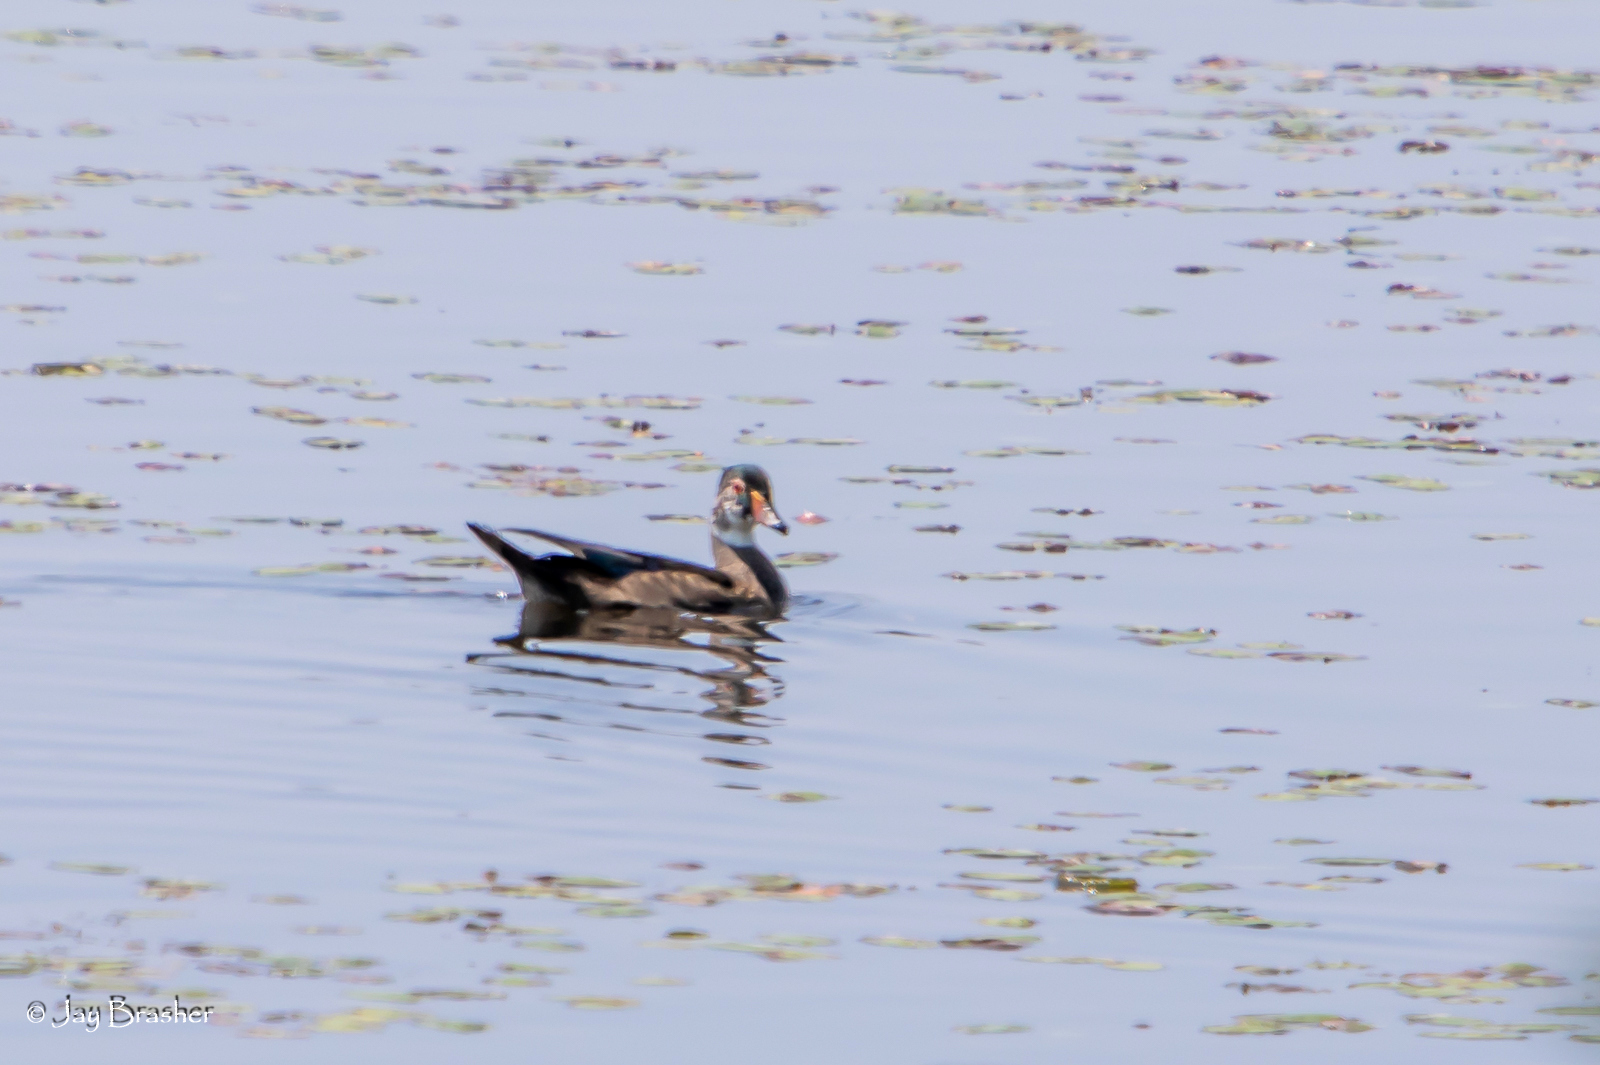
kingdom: Animalia
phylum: Chordata
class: Aves
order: Anseriformes
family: Anatidae
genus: Aix
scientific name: Aix sponsa
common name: Wood duck
